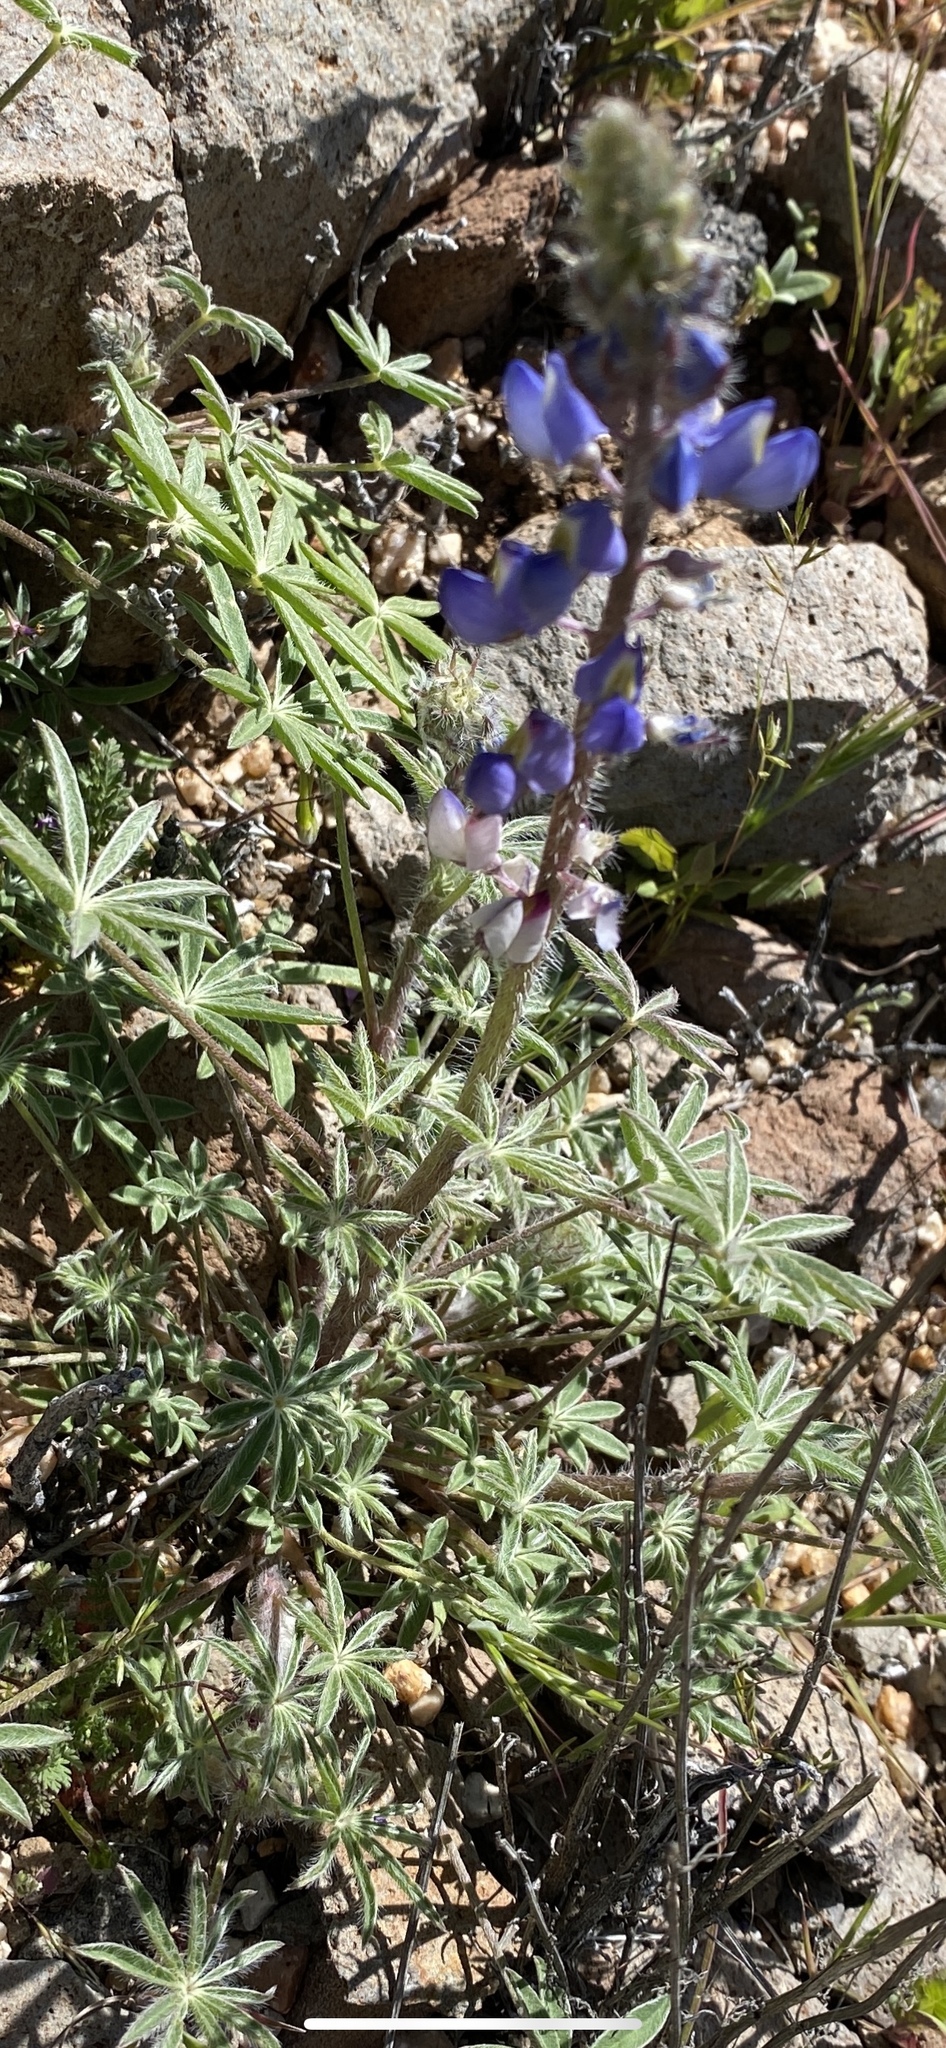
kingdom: Plantae
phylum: Tracheophyta
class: Magnoliopsida
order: Fabales
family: Fabaceae
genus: Lupinus
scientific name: Lupinus sparsiflorus
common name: Coulter's lupine
